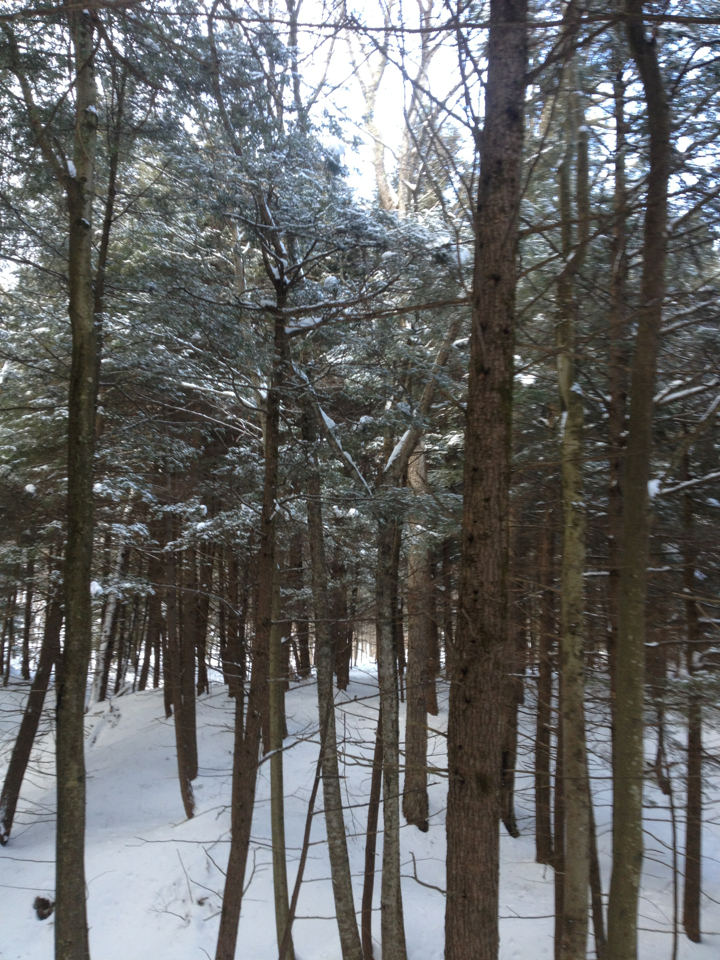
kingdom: Plantae
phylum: Tracheophyta
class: Pinopsida
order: Pinales
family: Pinaceae
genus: Tsuga
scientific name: Tsuga canadensis
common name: Eastern hemlock
